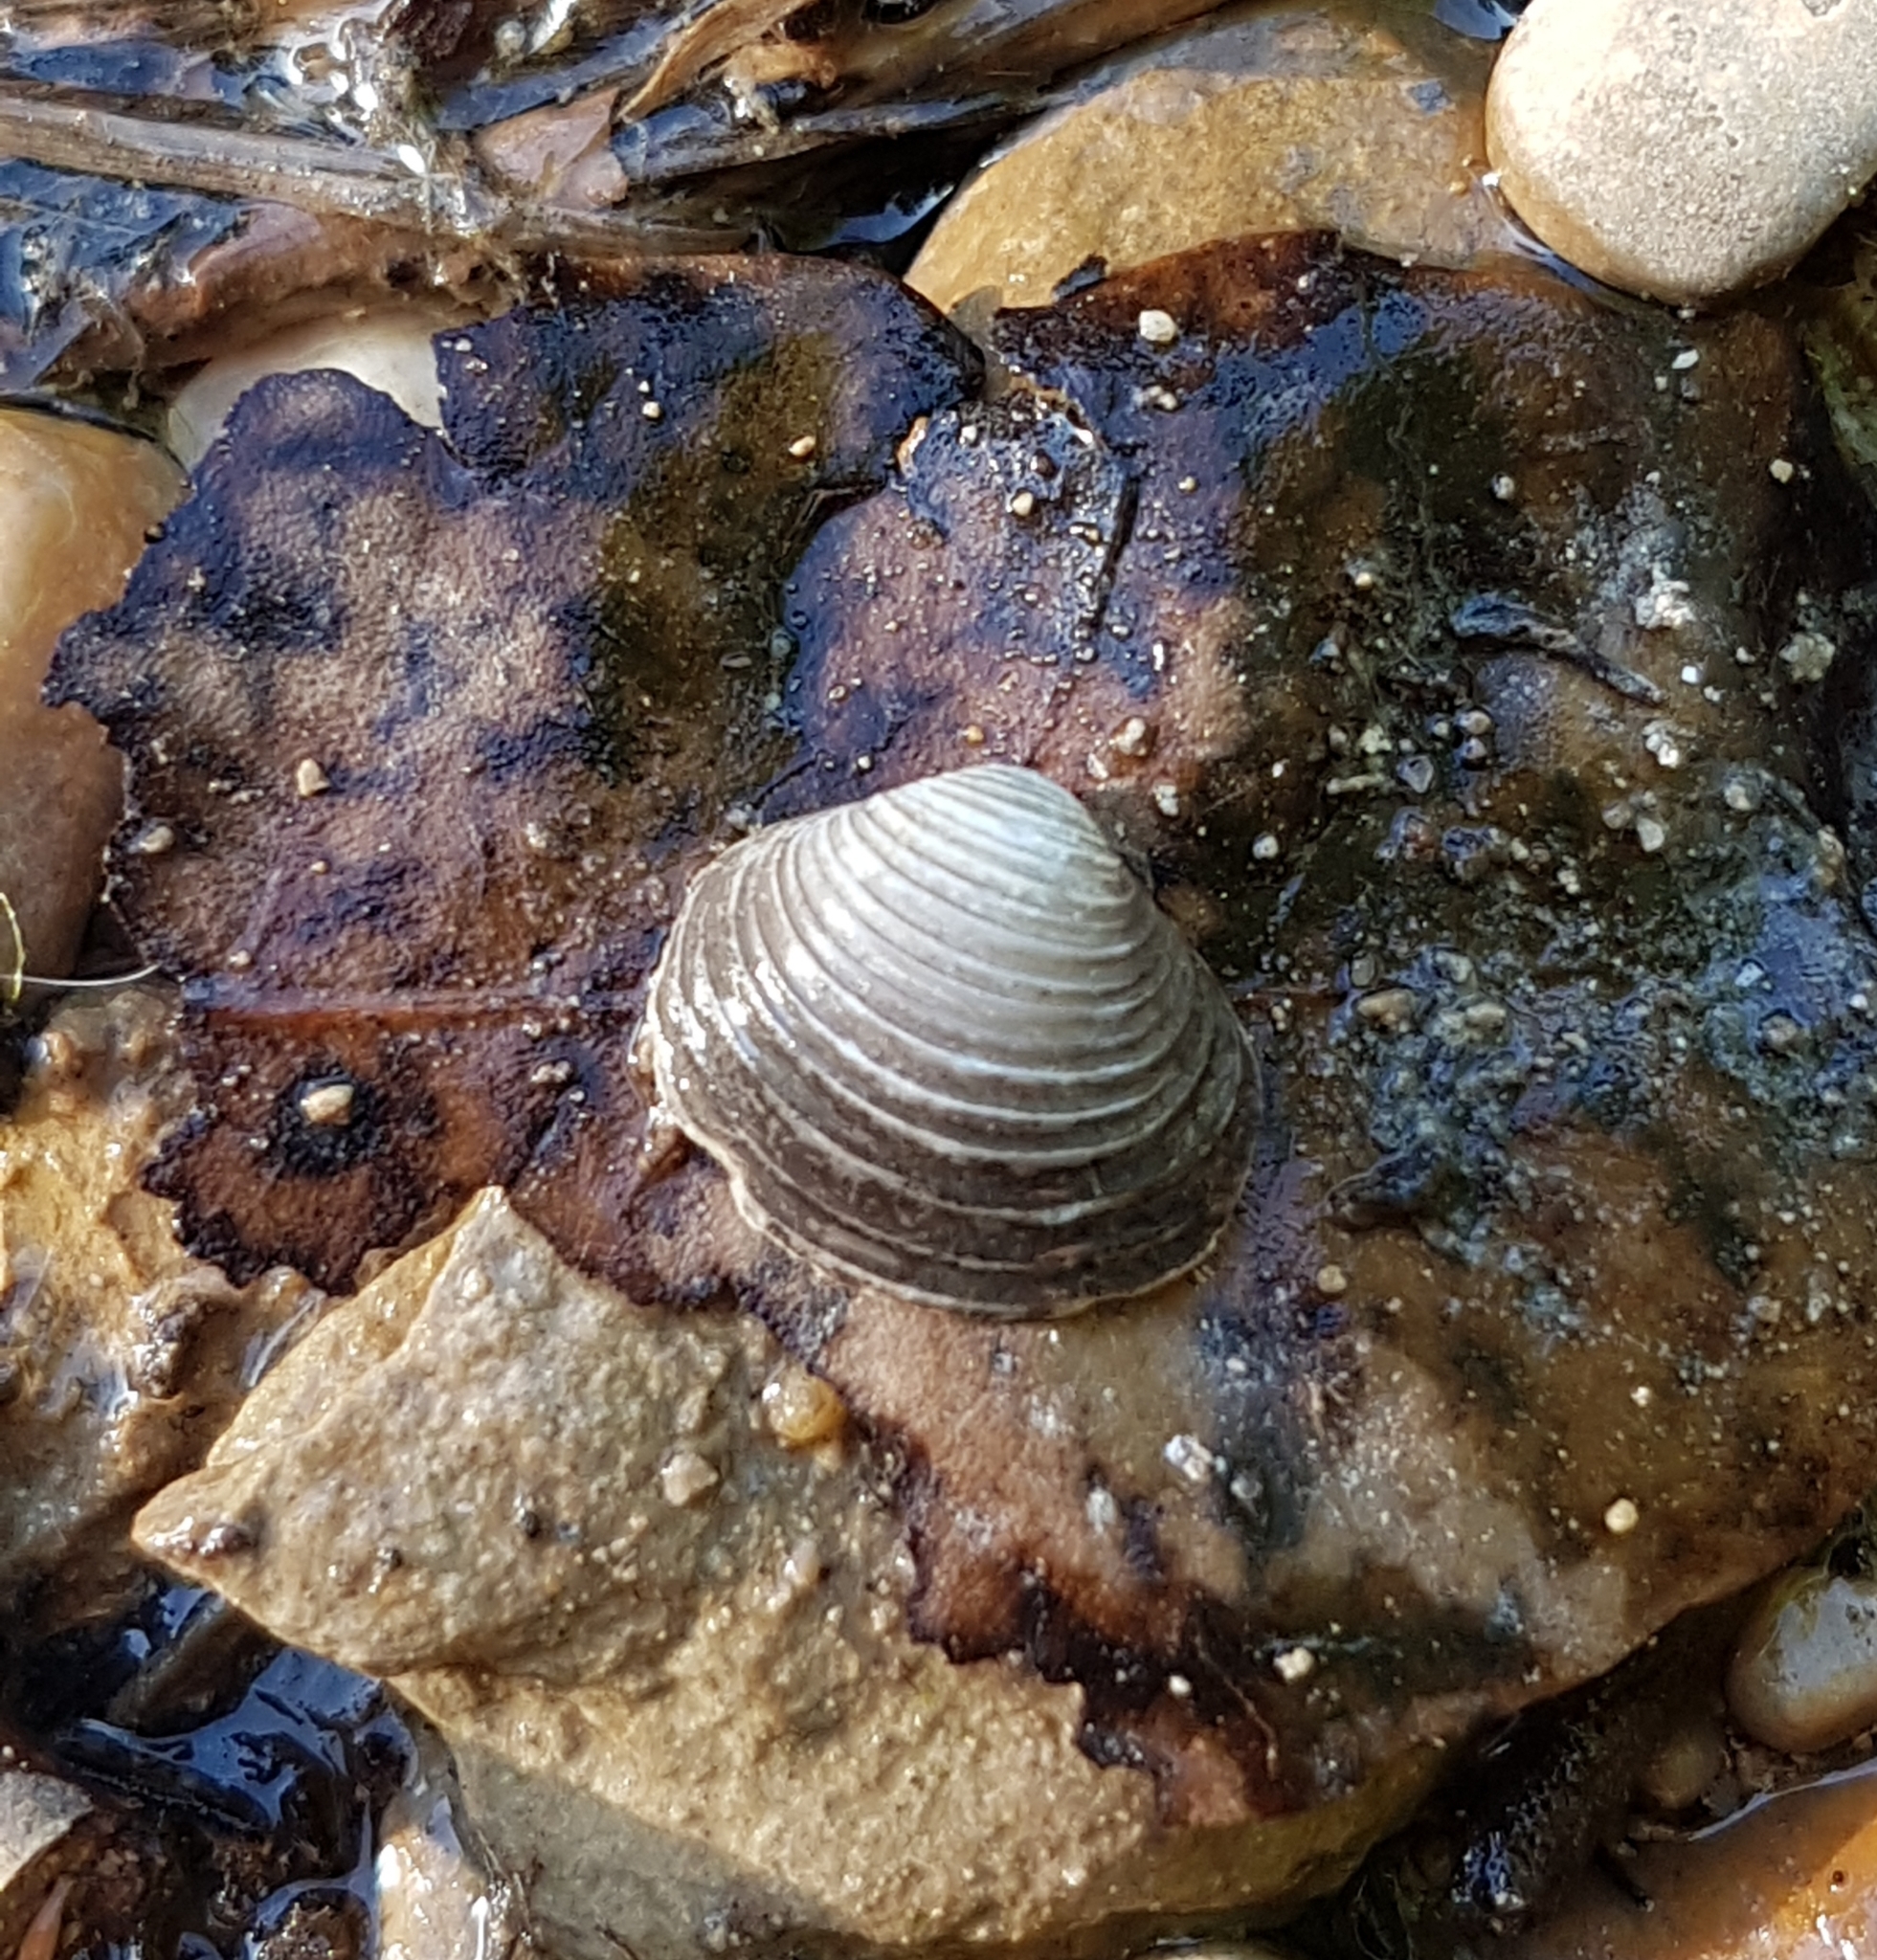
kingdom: Animalia
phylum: Mollusca
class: Bivalvia
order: Venerida
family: Cyrenidae
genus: Corbicula
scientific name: Corbicula fluminea
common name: Asian clam
